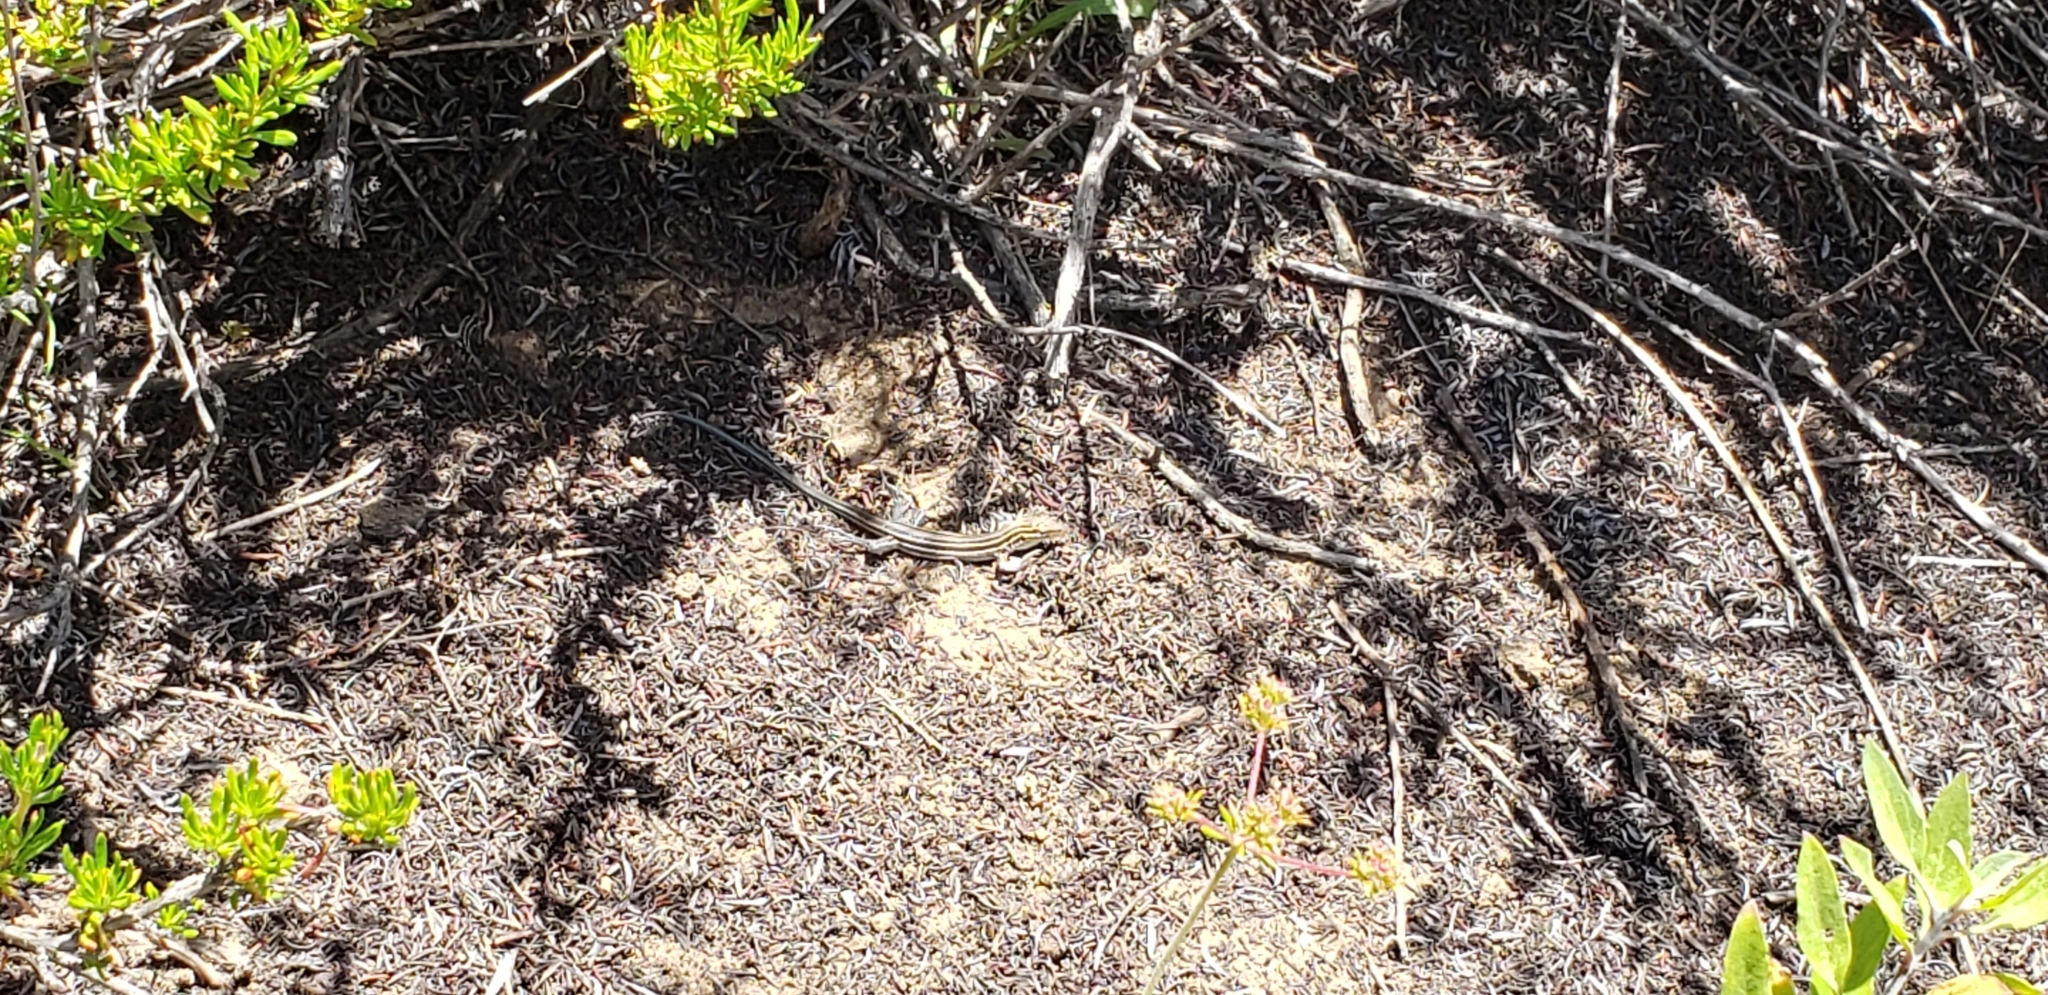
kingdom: Animalia
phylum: Chordata
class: Squamata
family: Teiidae
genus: Aspidoscelis
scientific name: Aspidoscelis hyperythrus
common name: Orange-throated race-runner
